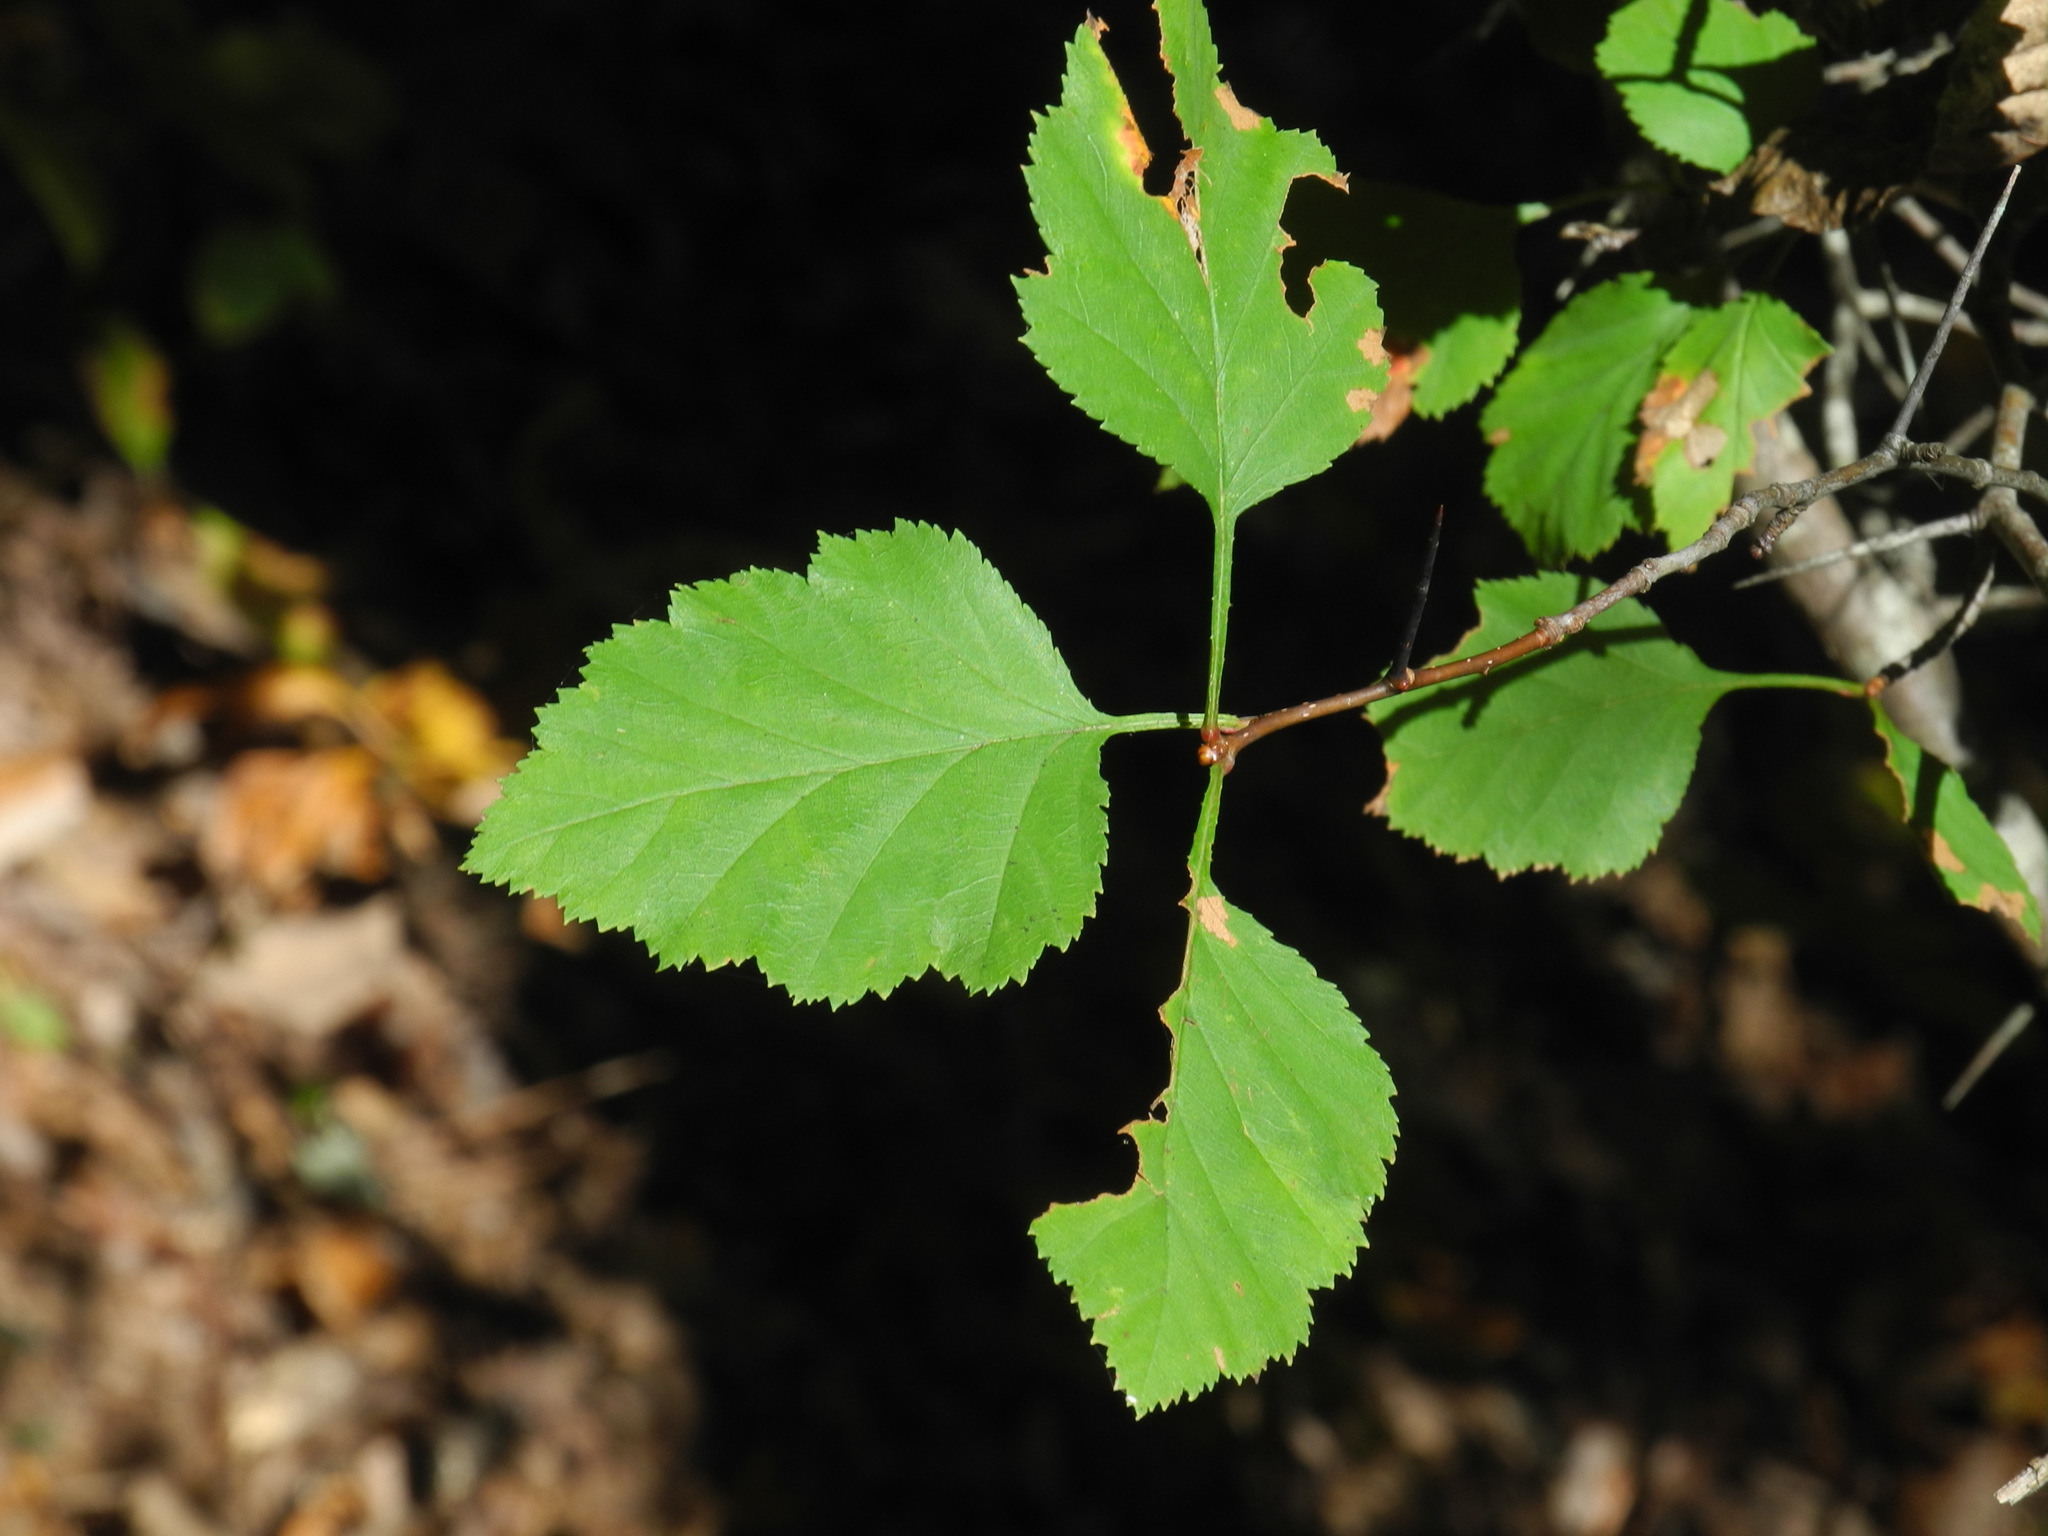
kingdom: Plantae
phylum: Tracheophyta
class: Magnoliopsida
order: Rosales
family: Rosaceae
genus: Crataegus
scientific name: Crataegus phaenopyrum
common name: Washington hawthorn
